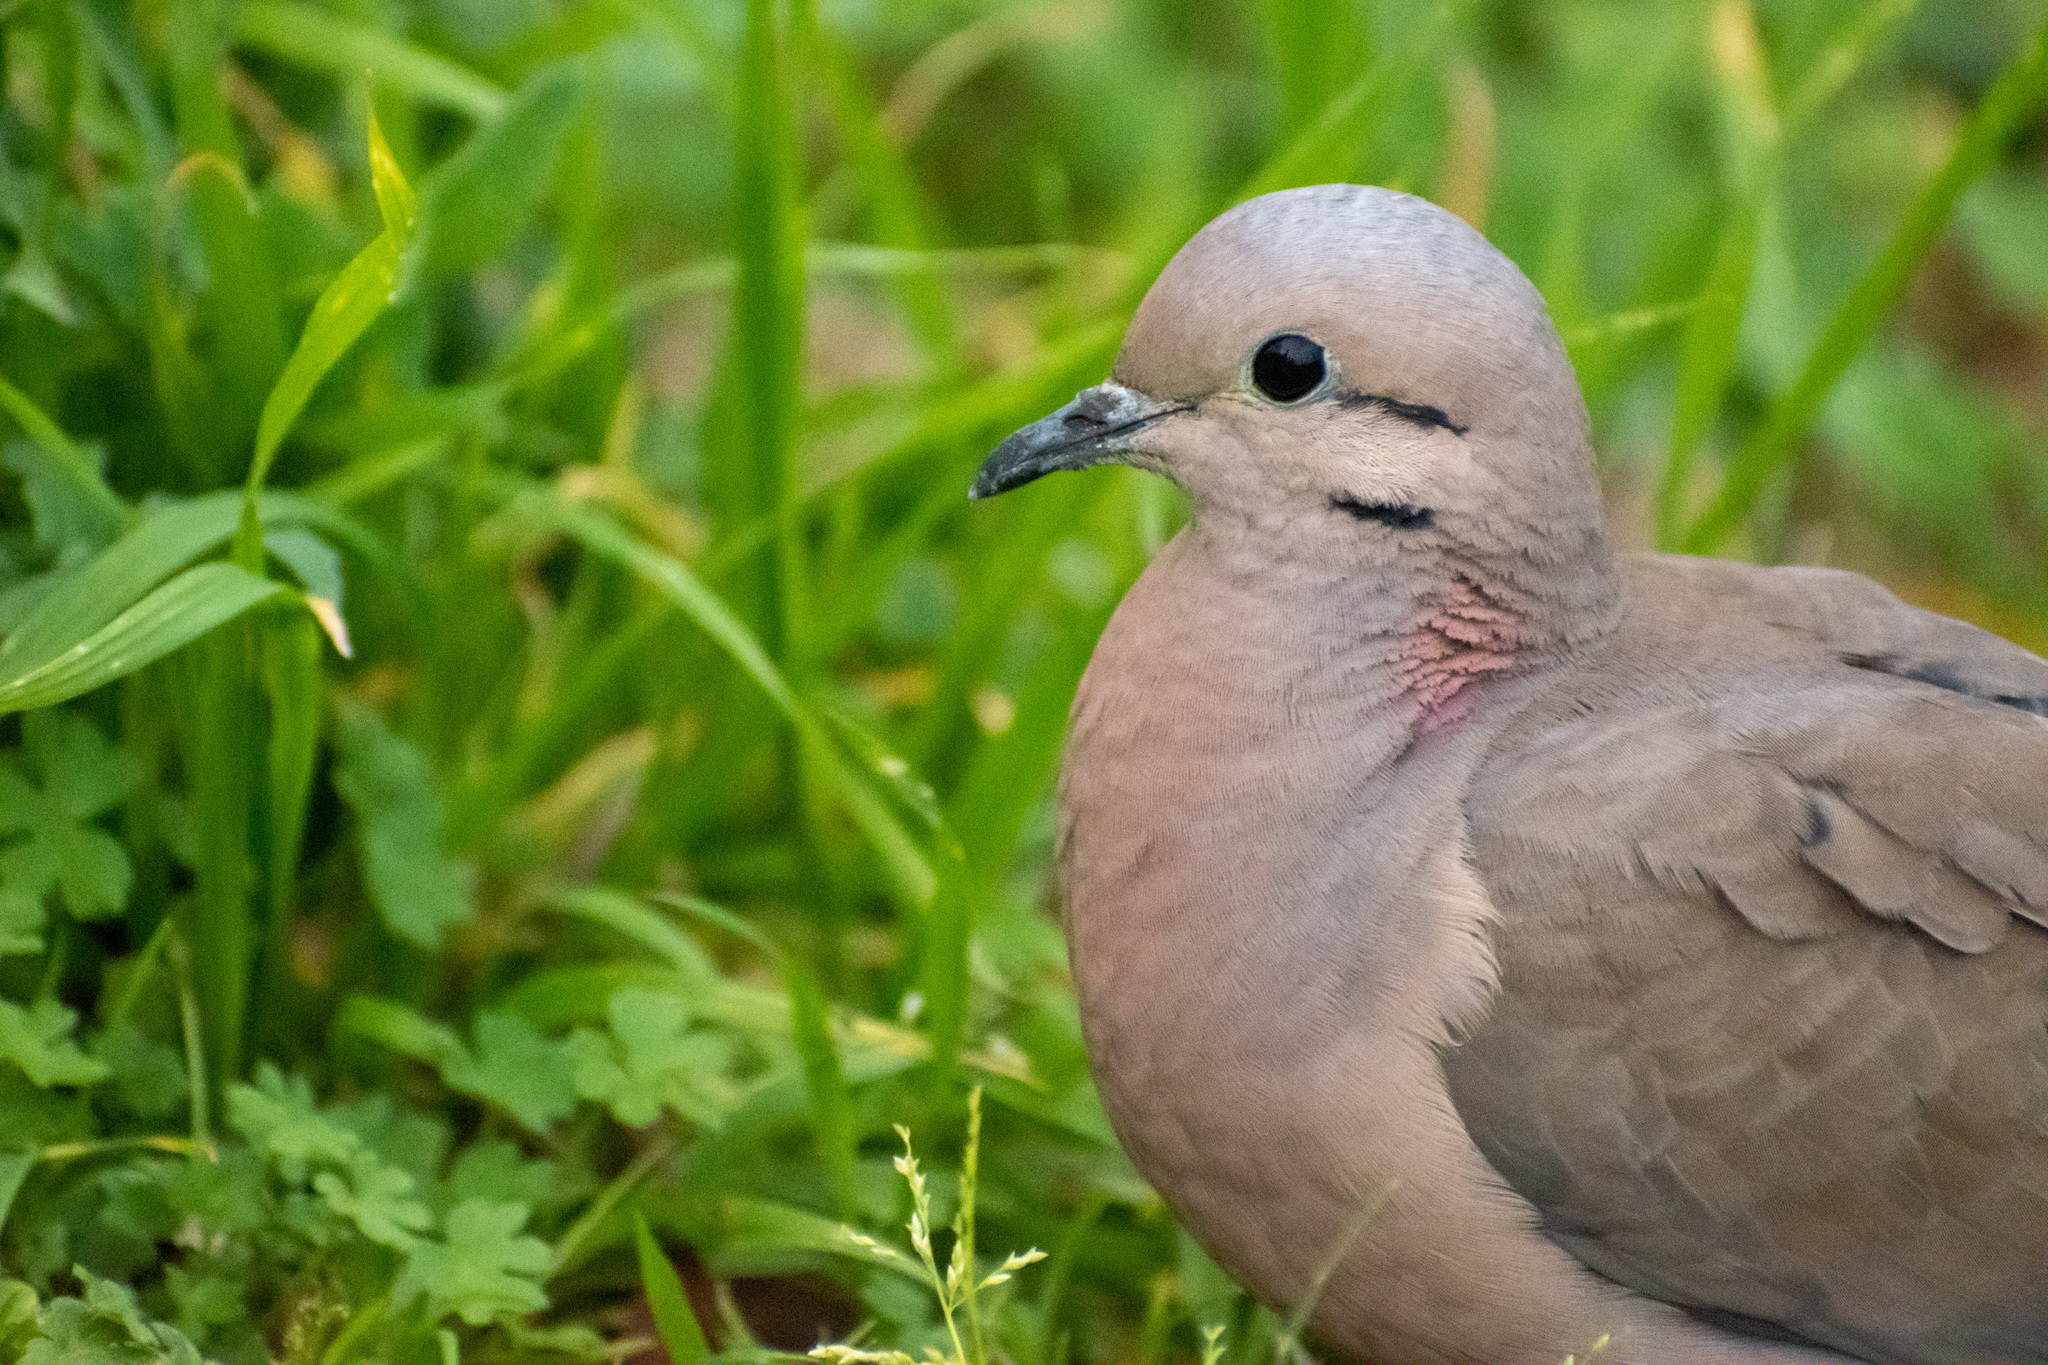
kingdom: Animalia
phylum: Chordata
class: Aves
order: Columbiformes
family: Columbidae
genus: Zenaida
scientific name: Zenaida auriculata
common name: Eared dove
